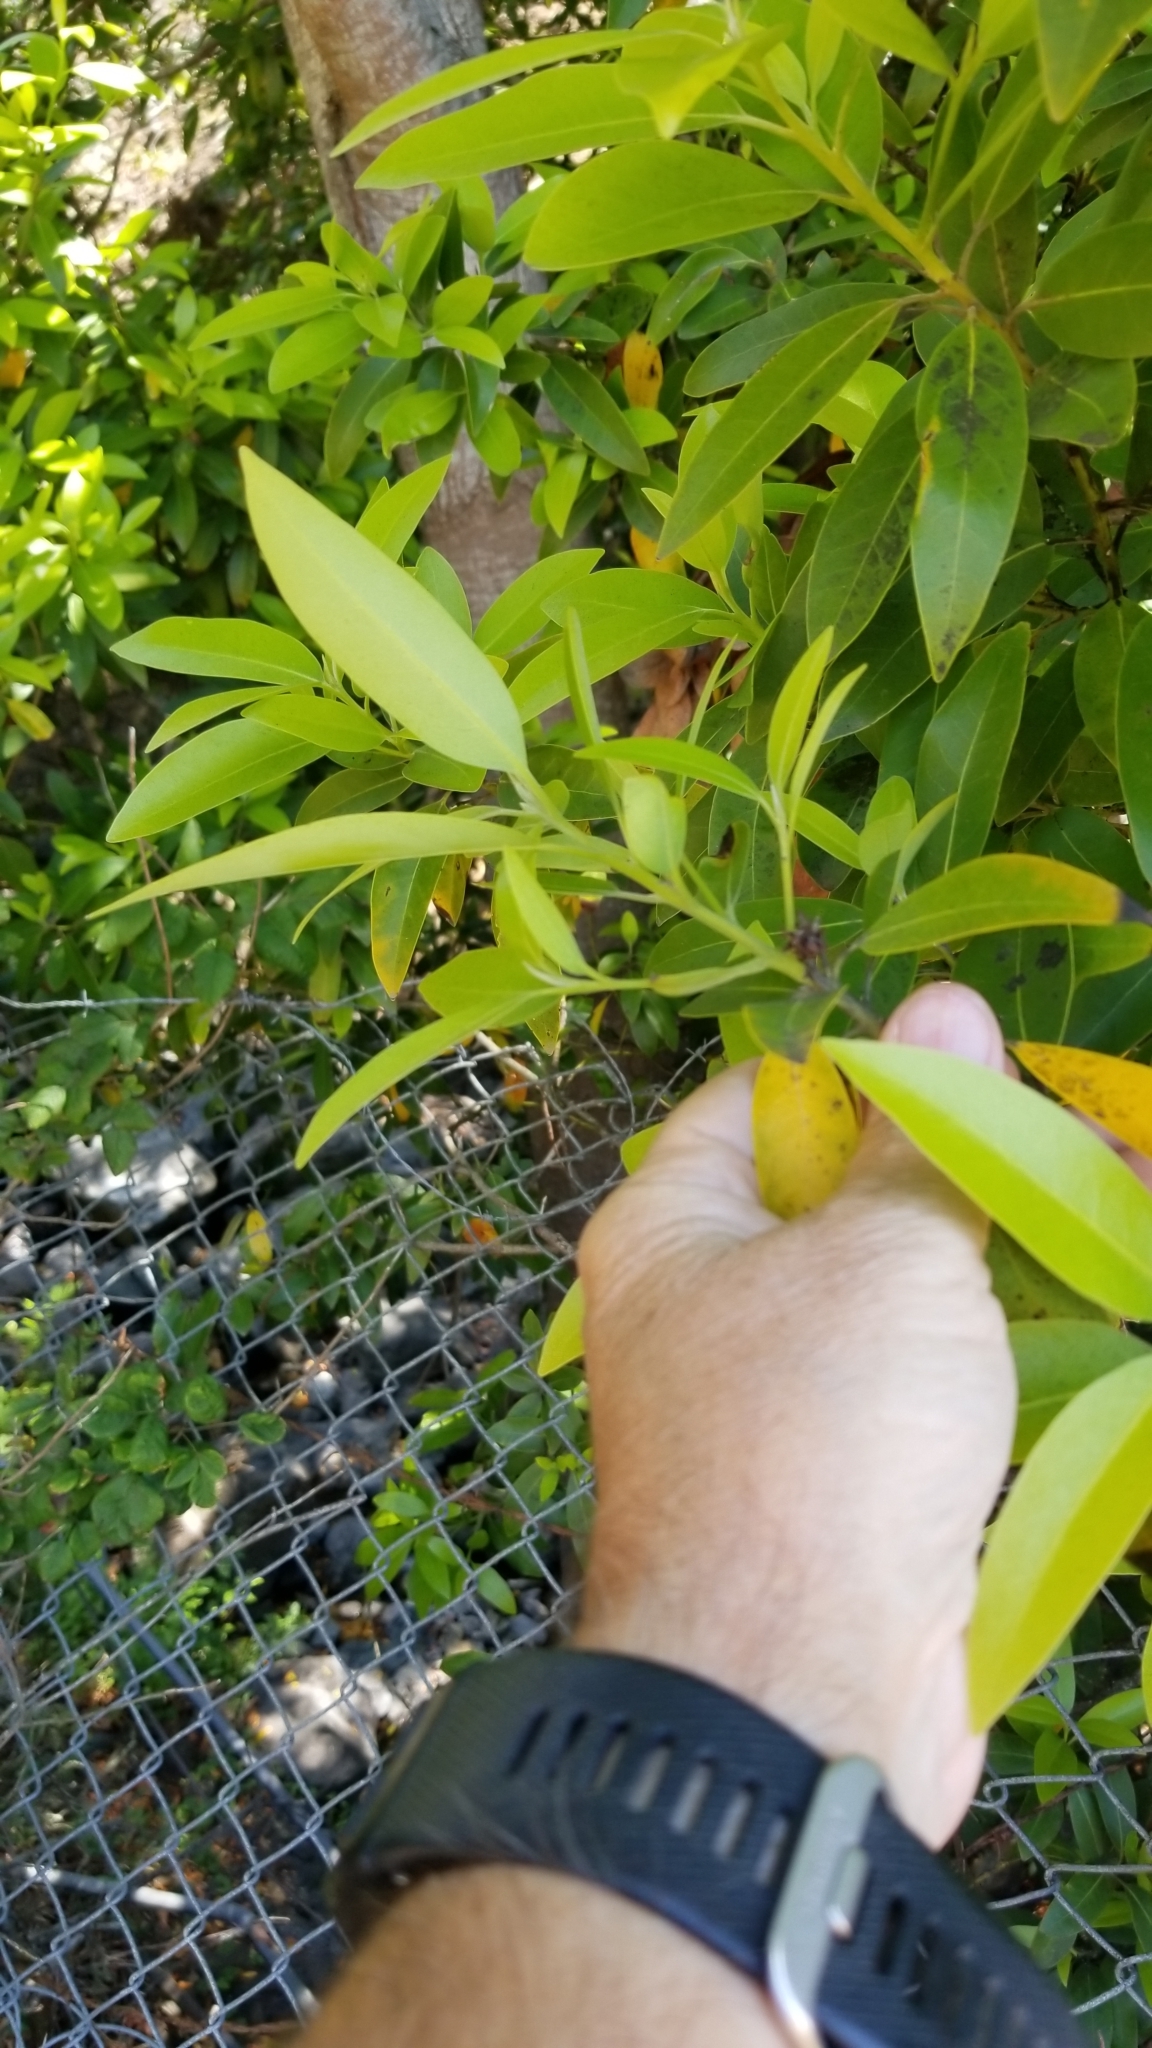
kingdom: Plantae
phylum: Tracheophyta
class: Magnoliopsida
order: Laurales
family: Lauraceae
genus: Umbellularia
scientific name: Umbellularia californica
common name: California bay
